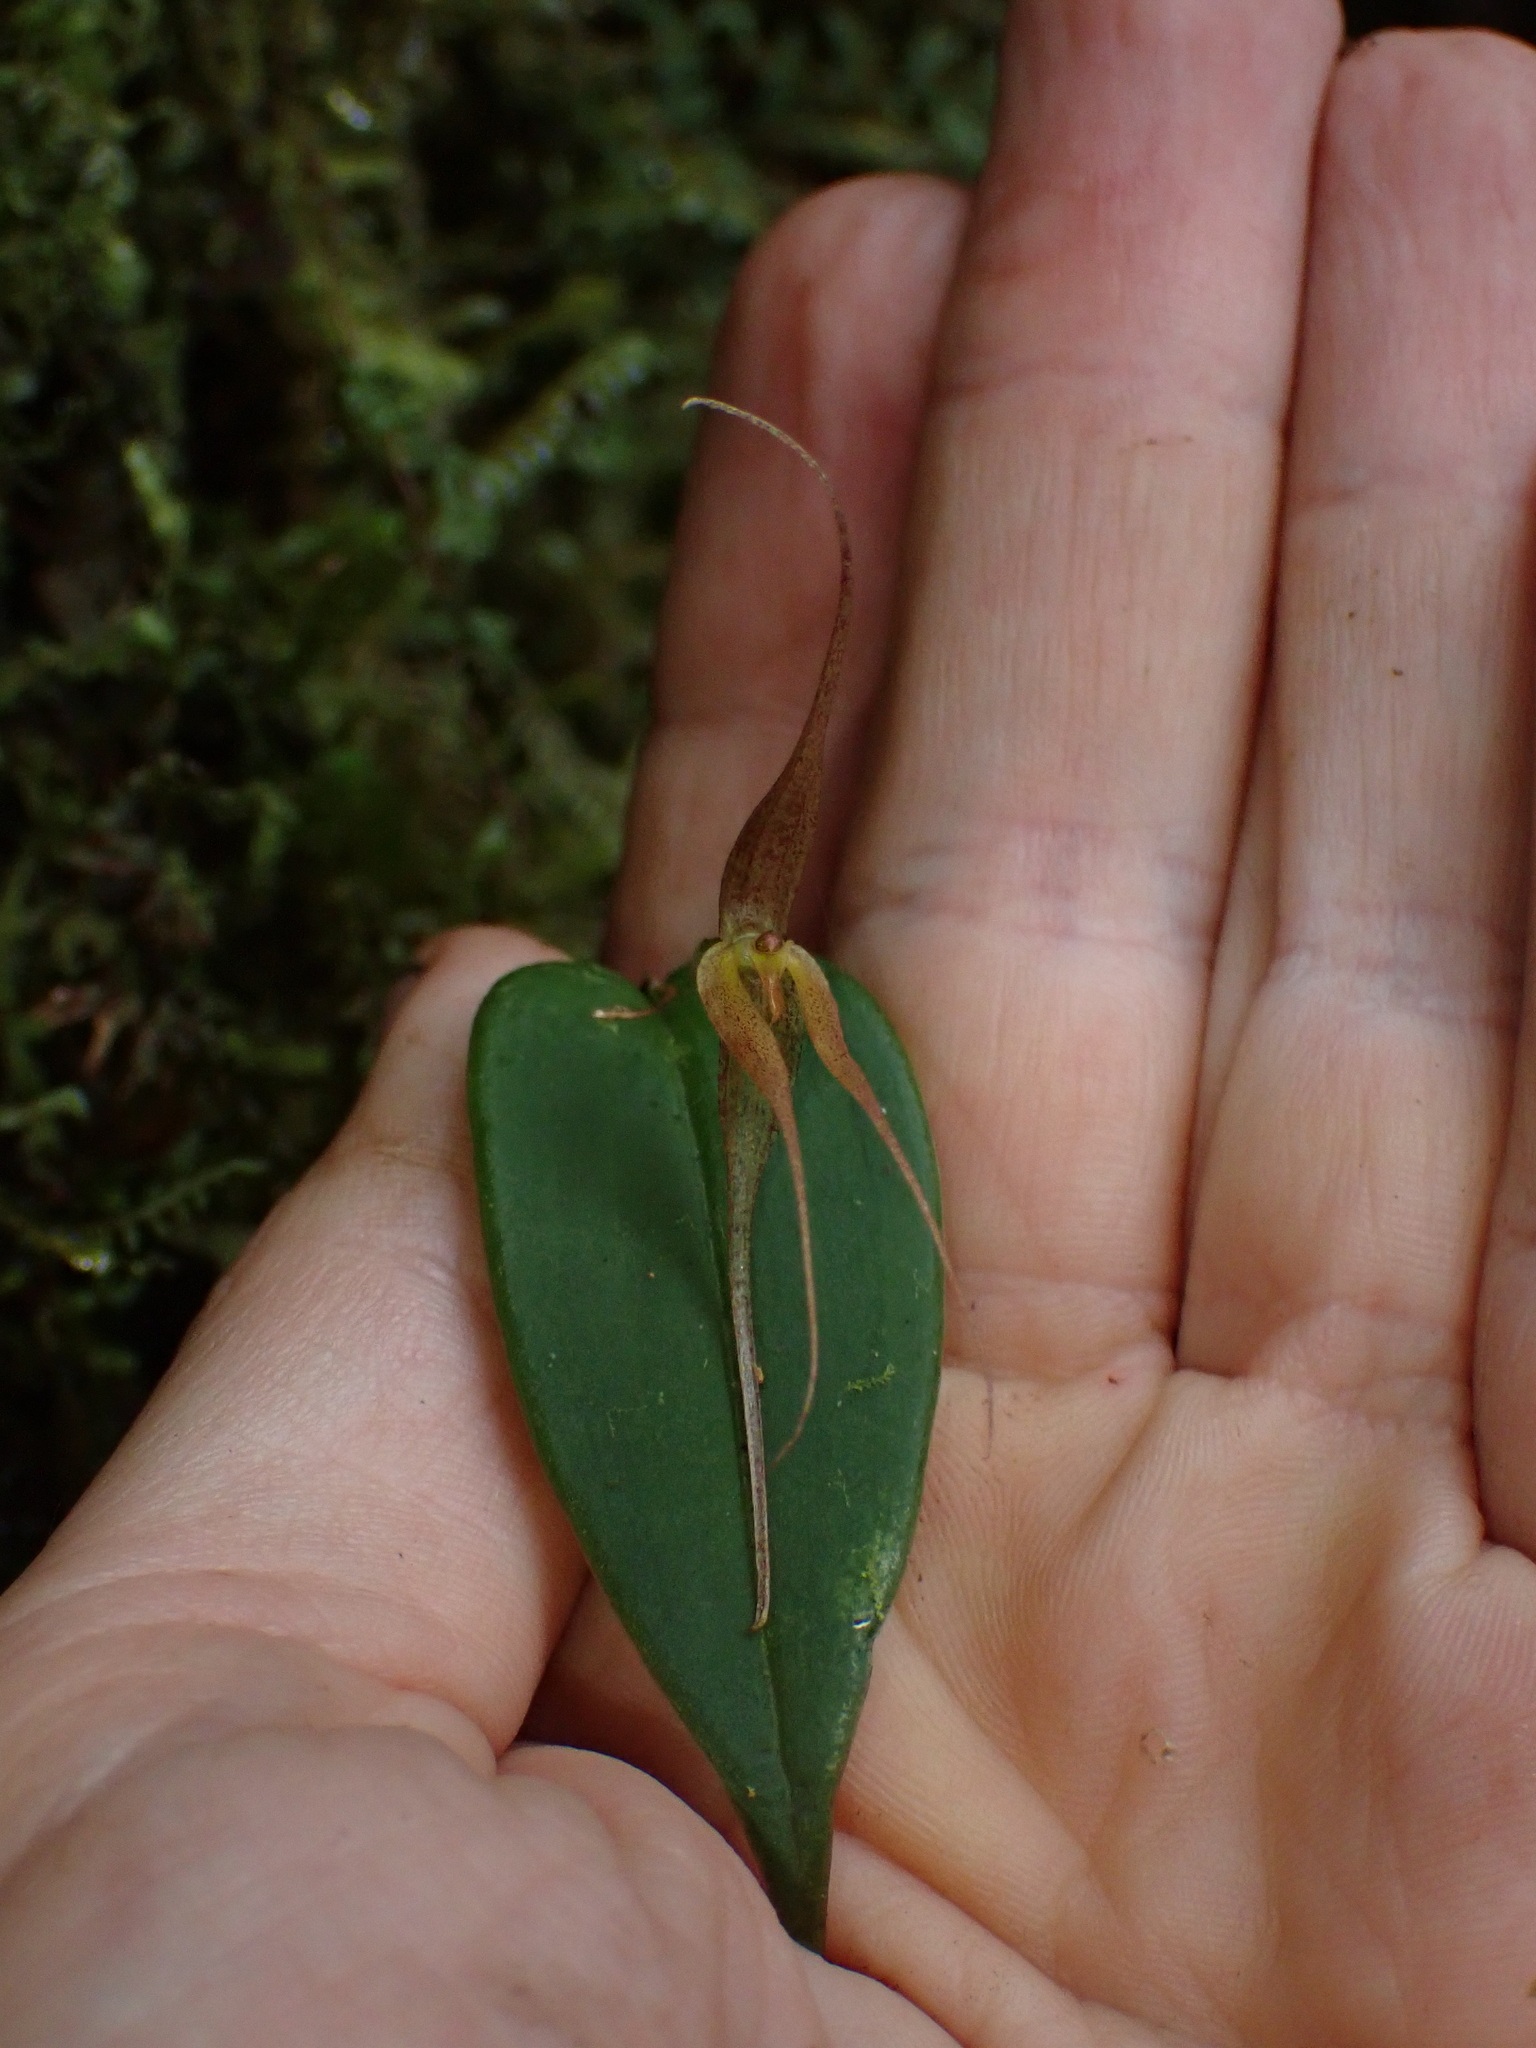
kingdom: Plantae
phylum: Tracheophyta
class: Liliopsida
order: Asparagales
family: Orchidaceae
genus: Pleurothallis
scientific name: Pleurothallis quadricaudata
